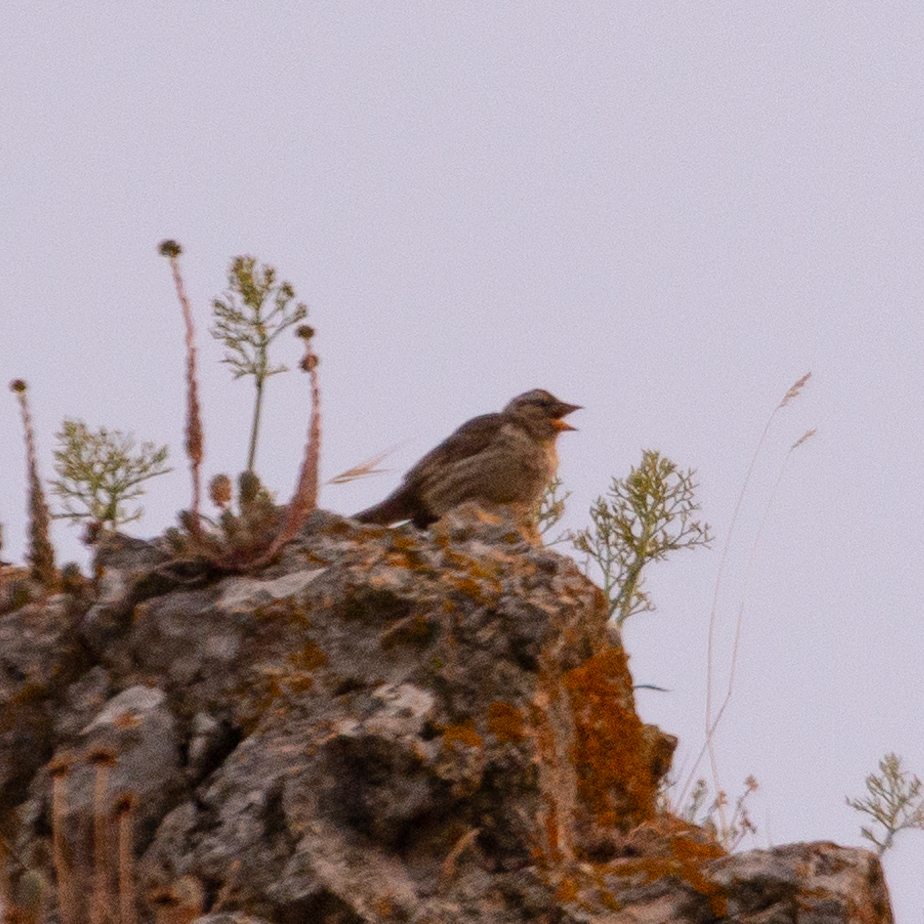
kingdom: Animalia
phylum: Chordata
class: Aves
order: Passeriformes
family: Passeridae
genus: Petronia
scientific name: Petronia petronia
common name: Rock sparrow
